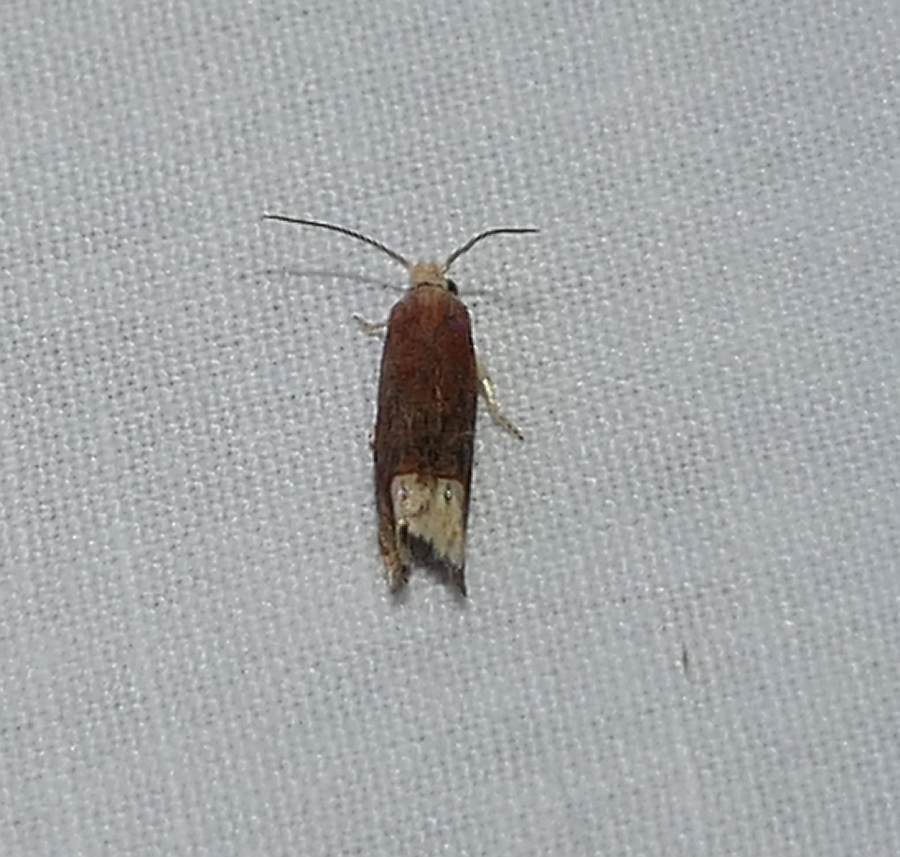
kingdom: Animalia
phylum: Arthropoda
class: Insecta
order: Lepidoptera
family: Tortricidae
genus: Eucosma
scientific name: Eucosma raracana
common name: Reddish eucosma moth
